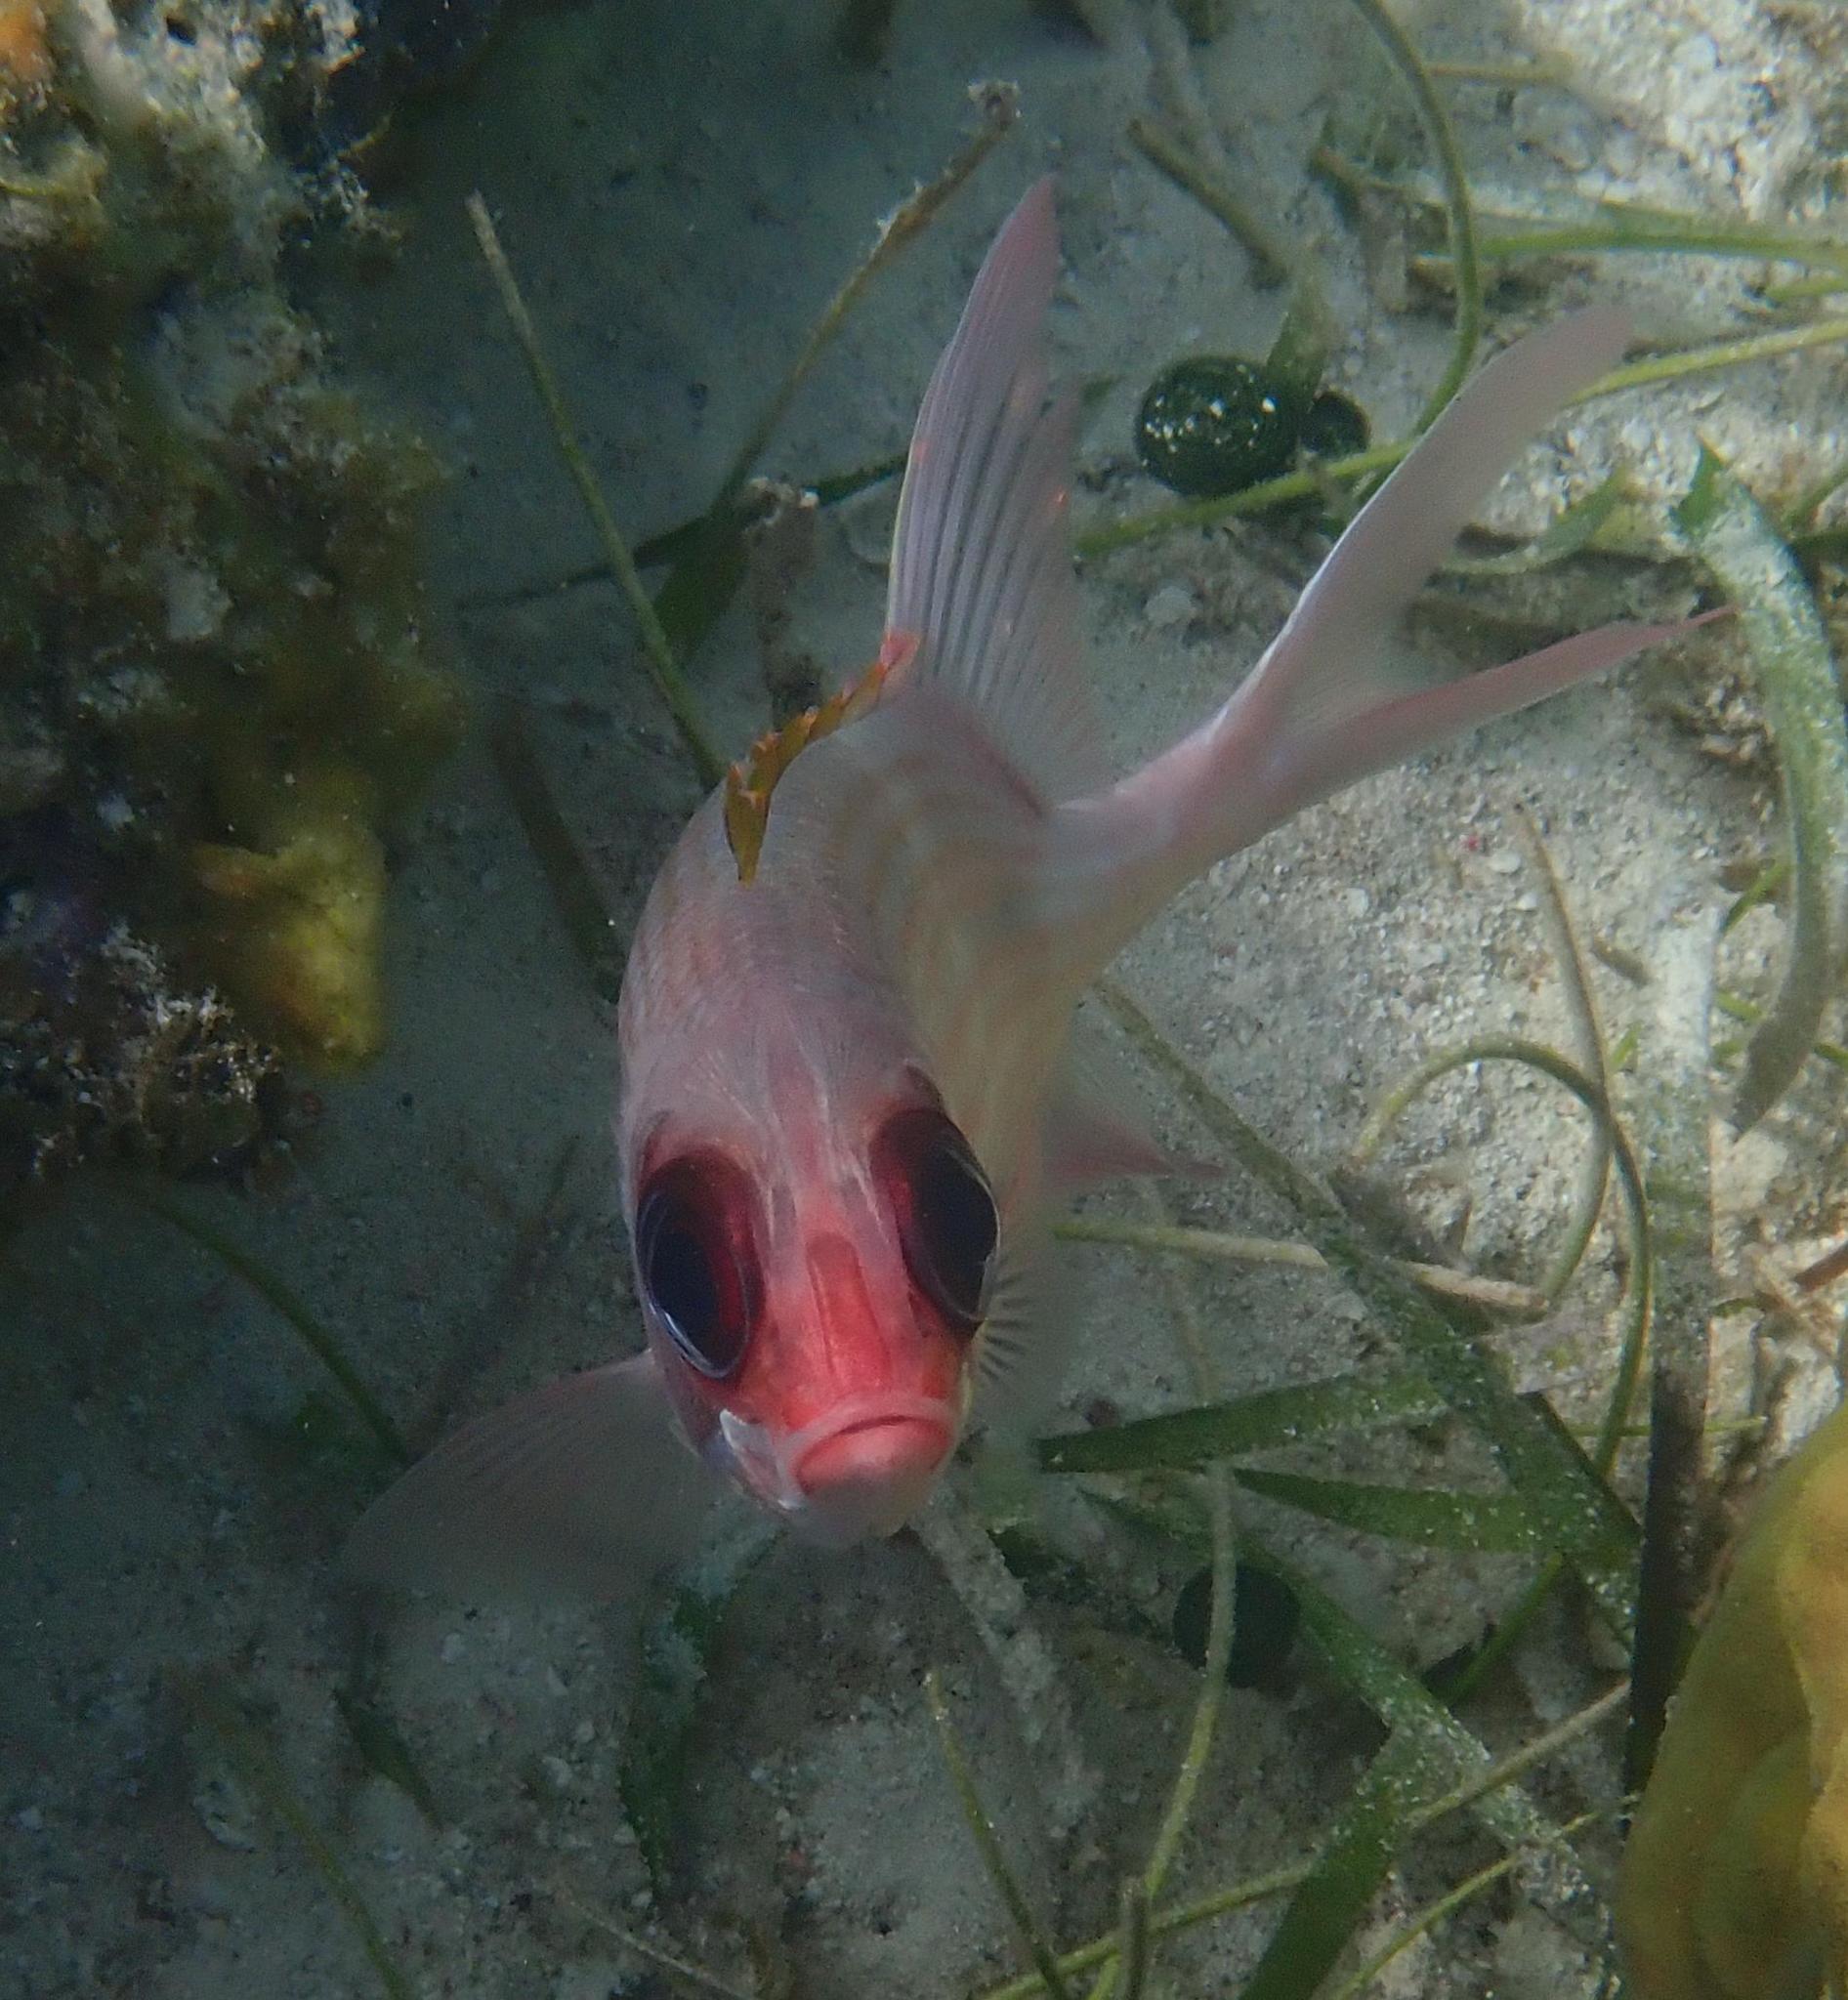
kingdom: Animalia
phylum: Chordata
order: Beryciformes
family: Holocentridae
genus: Holocentrus
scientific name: Holocentrus adscensionis
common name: Squirrelfish
